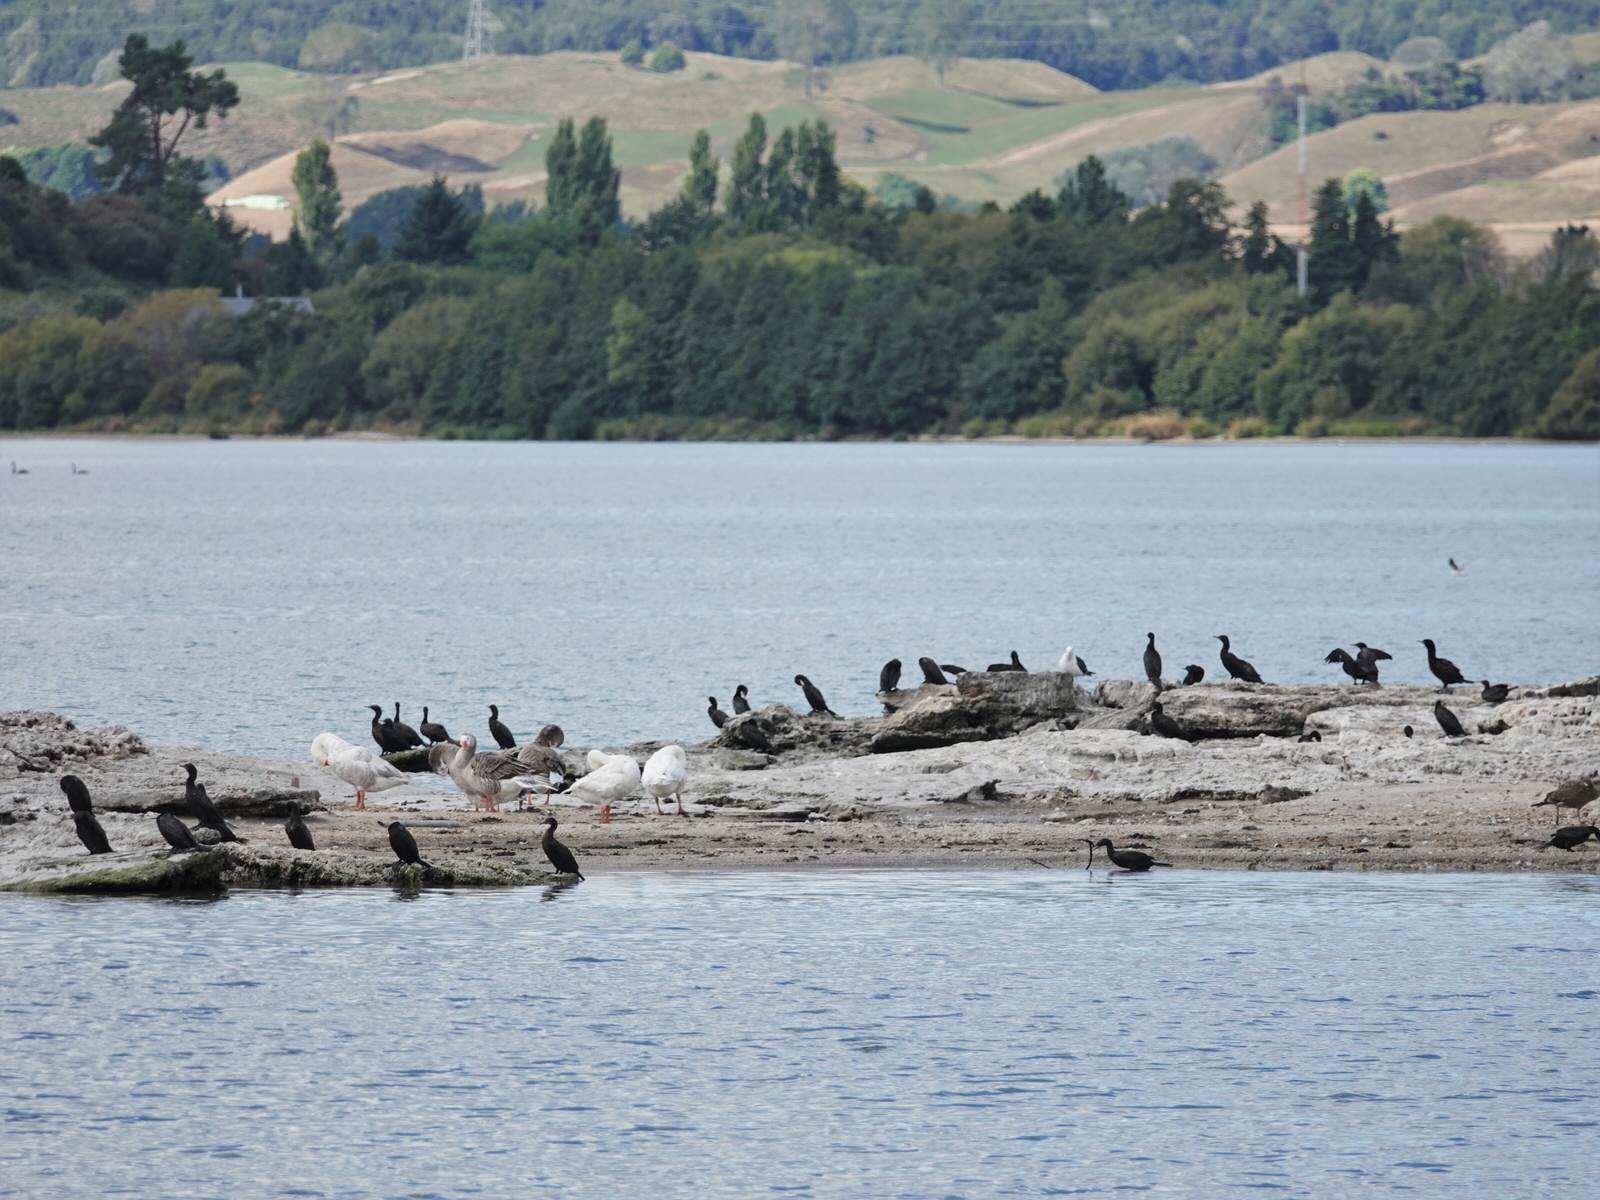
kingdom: Animalia
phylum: Chordata
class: Aves
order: Suliformes
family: Phalacrocoracidae
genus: Phalacrocorax
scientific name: Phalacrocorax sulcirostris
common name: Little black cormorant
